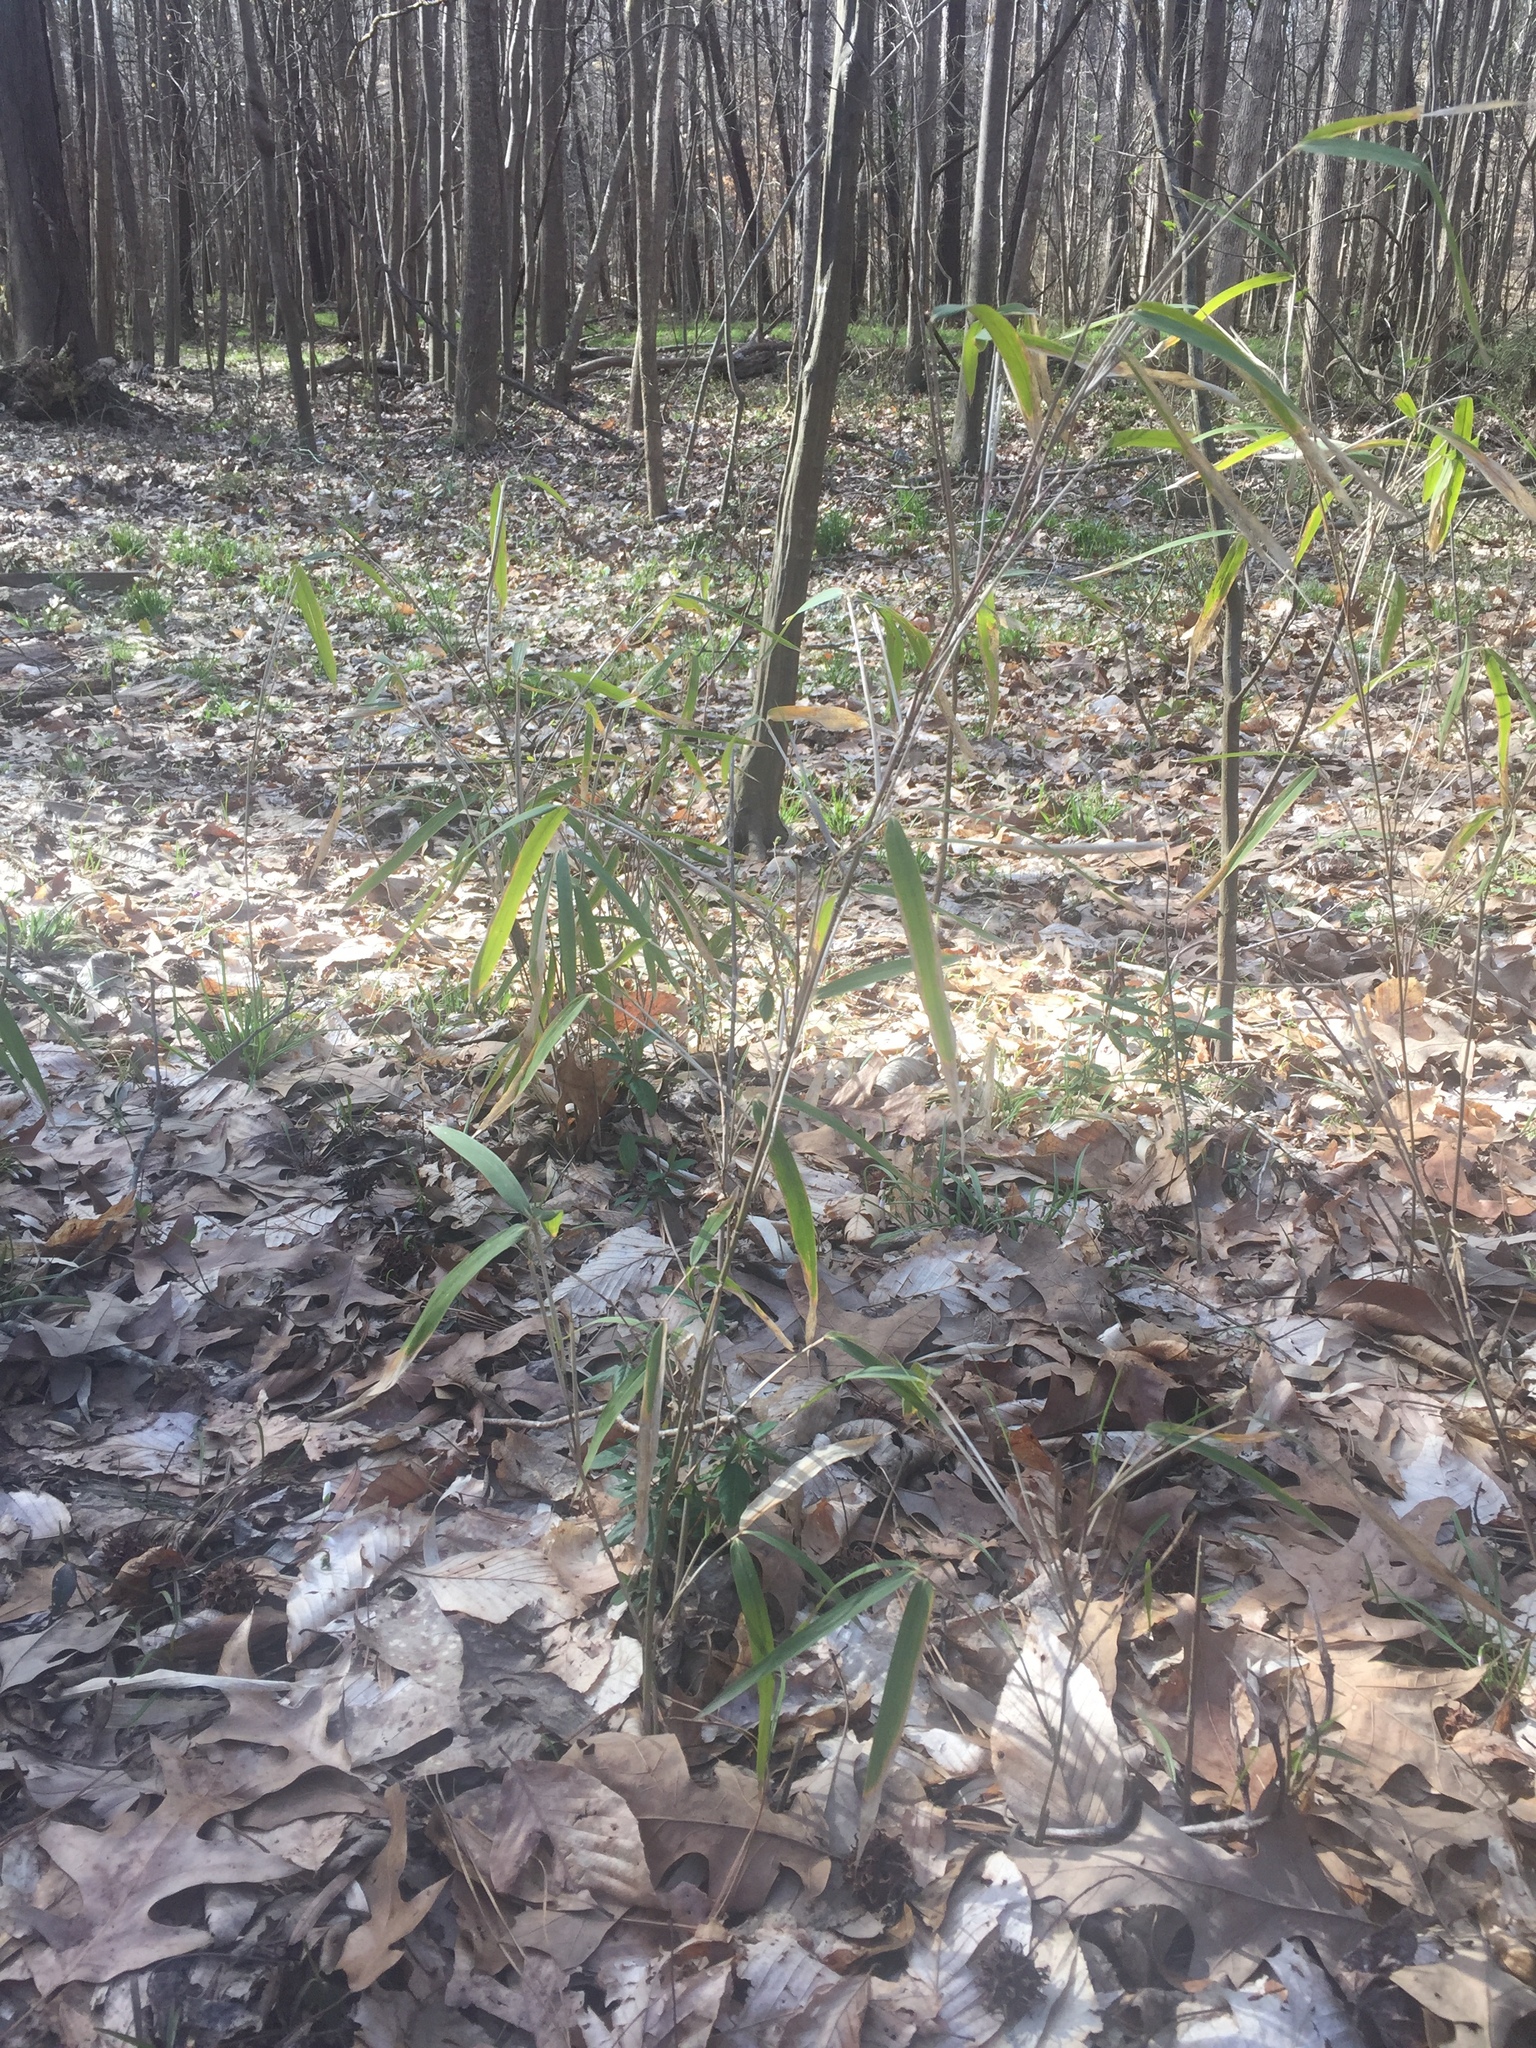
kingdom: Plantae
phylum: Tracheophyta
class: Liliopsida
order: Poales
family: Poaceae
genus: Arundinaria
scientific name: Arundinaria gigantea
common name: Giant cane
